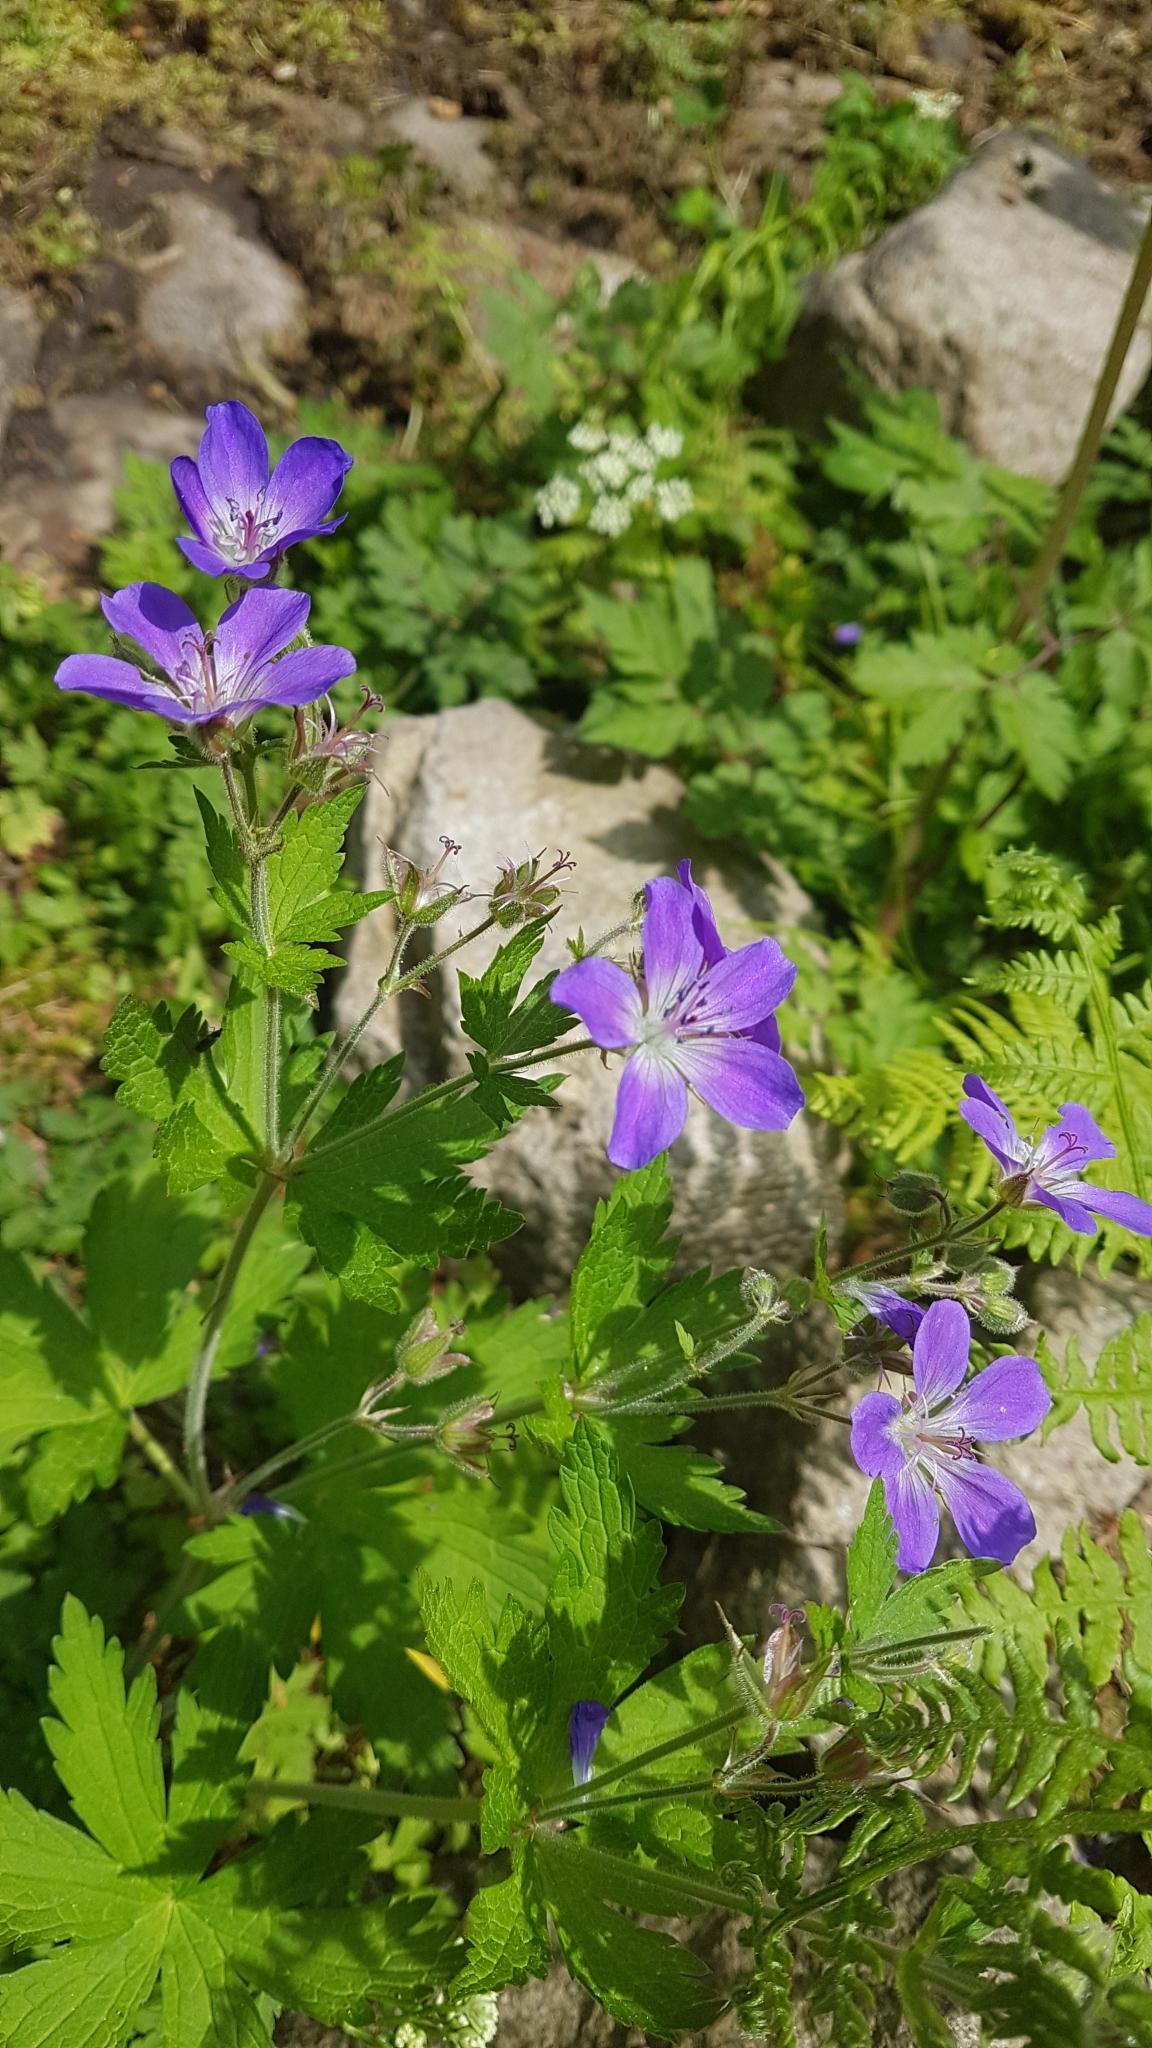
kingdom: Plantae
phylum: Tracheophyta
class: Magnoliopsida
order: Geraniales
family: Geraniaceae
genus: Geranium
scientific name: Geranium sylvaticum
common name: Wood crane's-bill
